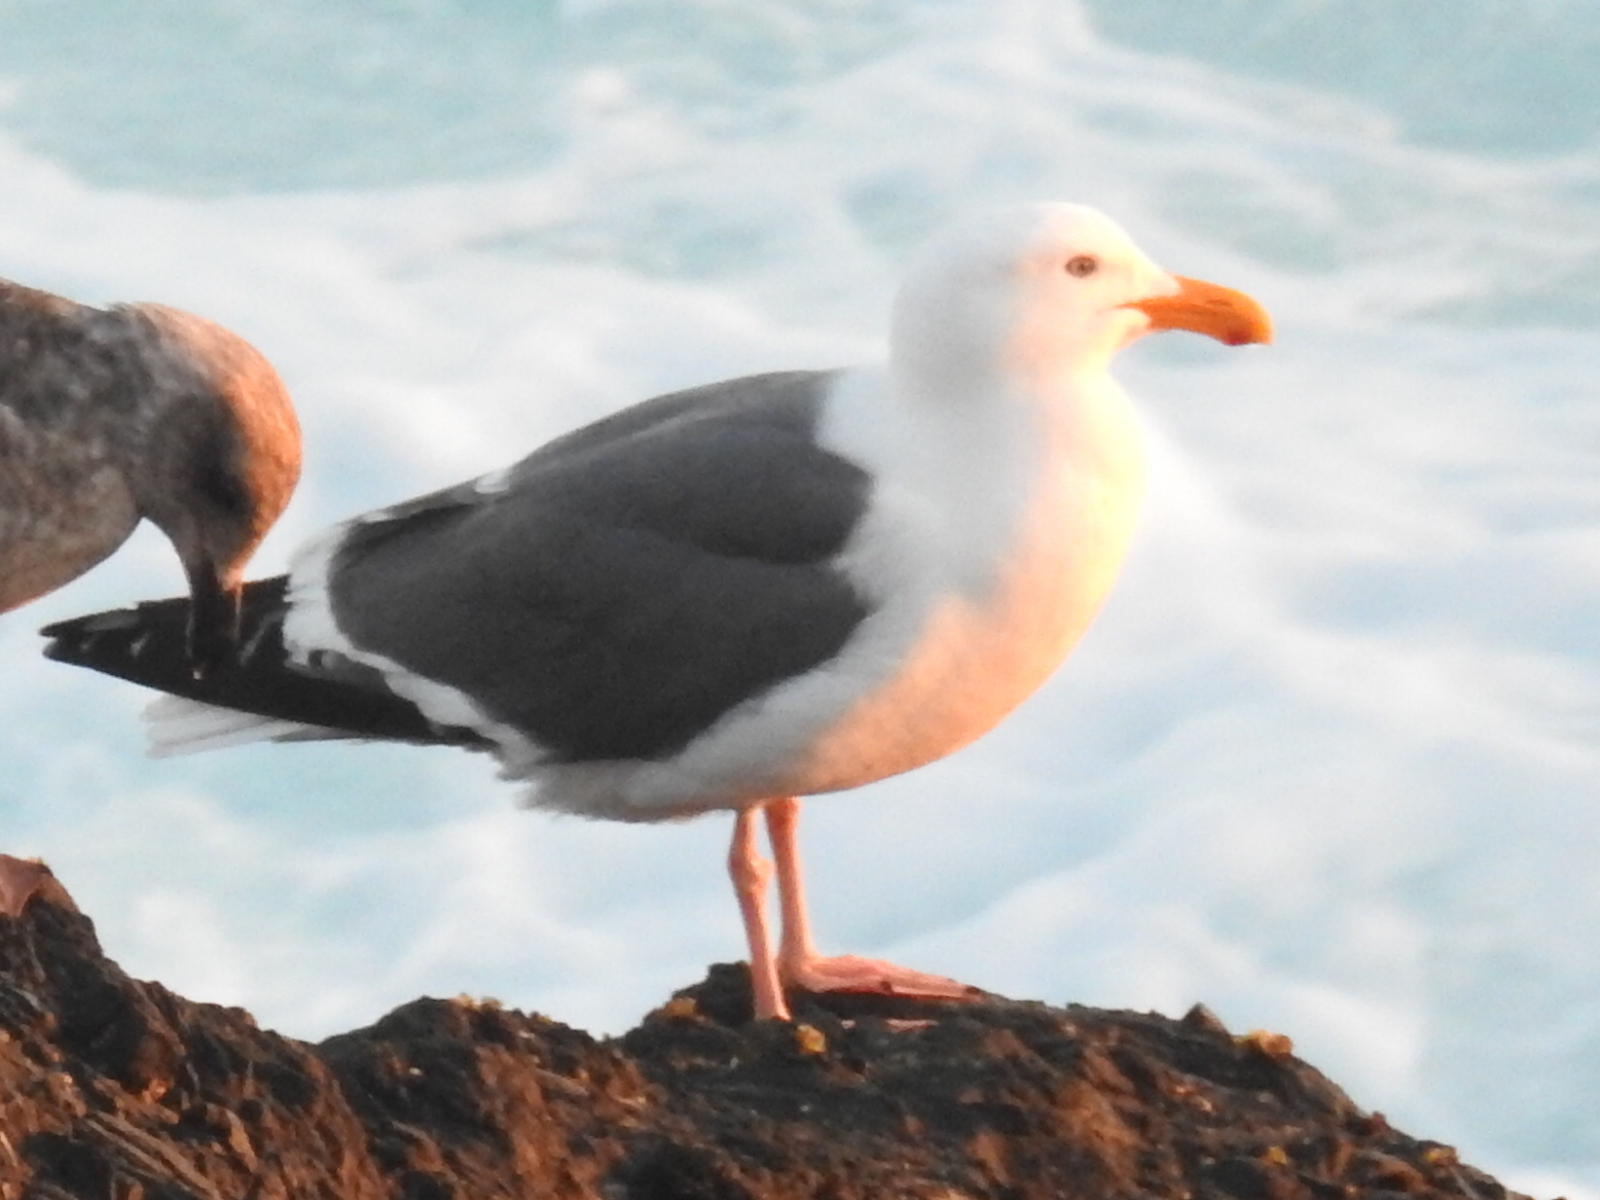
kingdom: Animalia
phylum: Chordata
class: Aves
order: Charadriiformes
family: Laridae
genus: Larus
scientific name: Larus occidentalis
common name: Western gull
